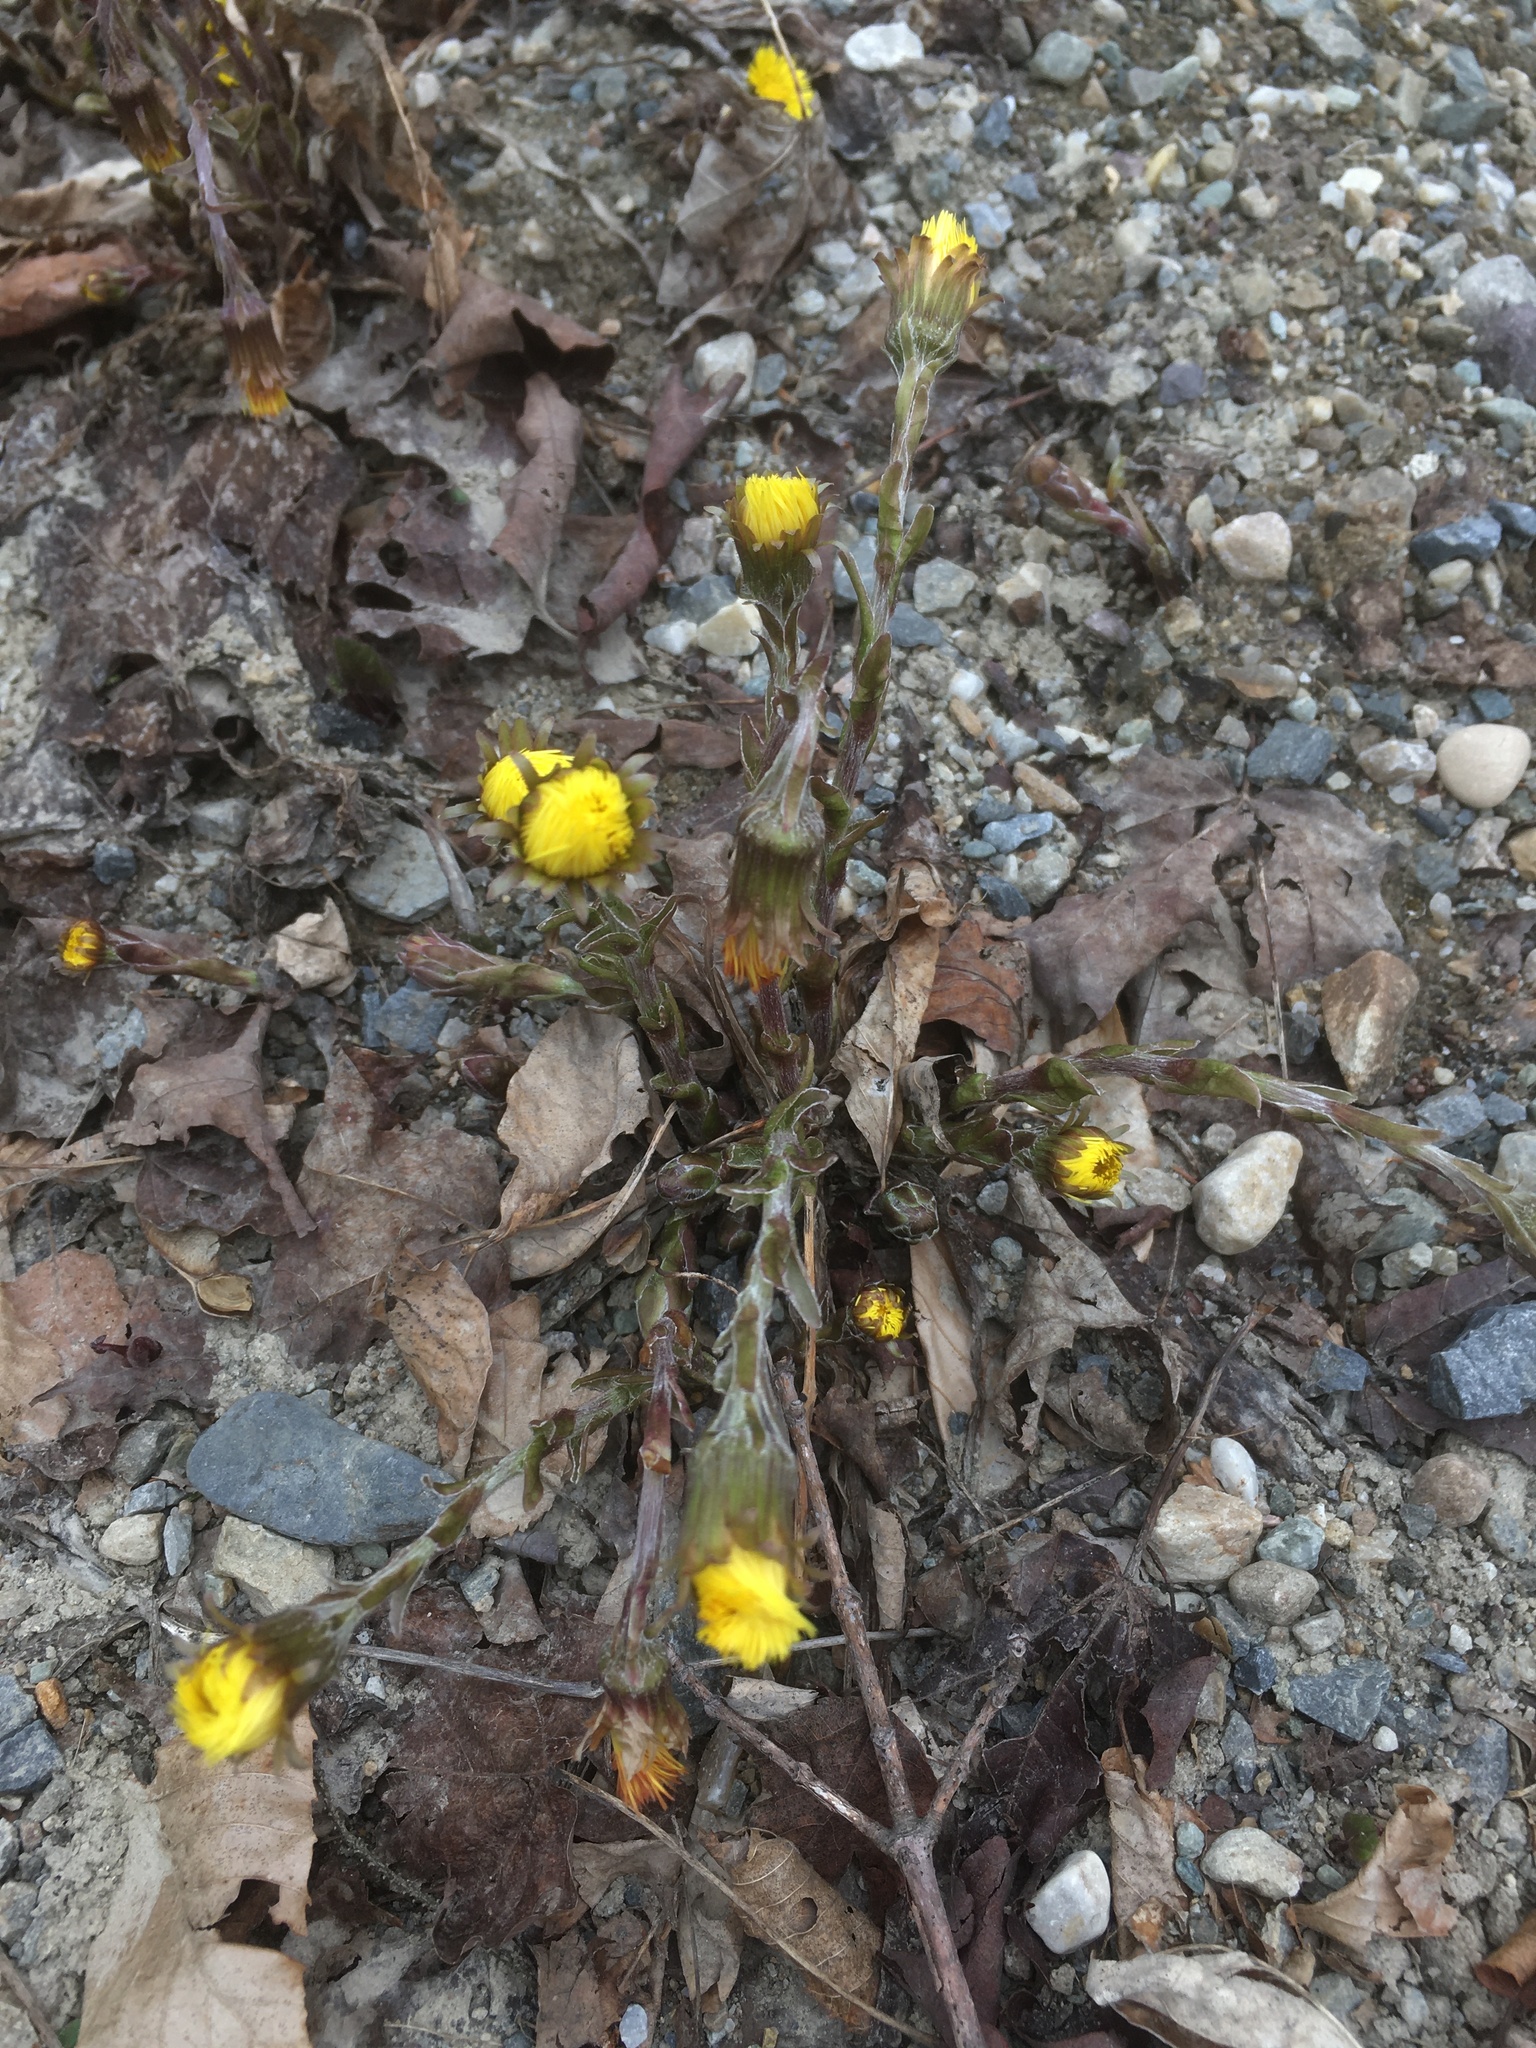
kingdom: Plantae
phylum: Tracheophyta
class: Magnoliopsida
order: Asterales
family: Asteraceae
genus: Tussilago
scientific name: Tussilago farfara
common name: Coltsfoot
